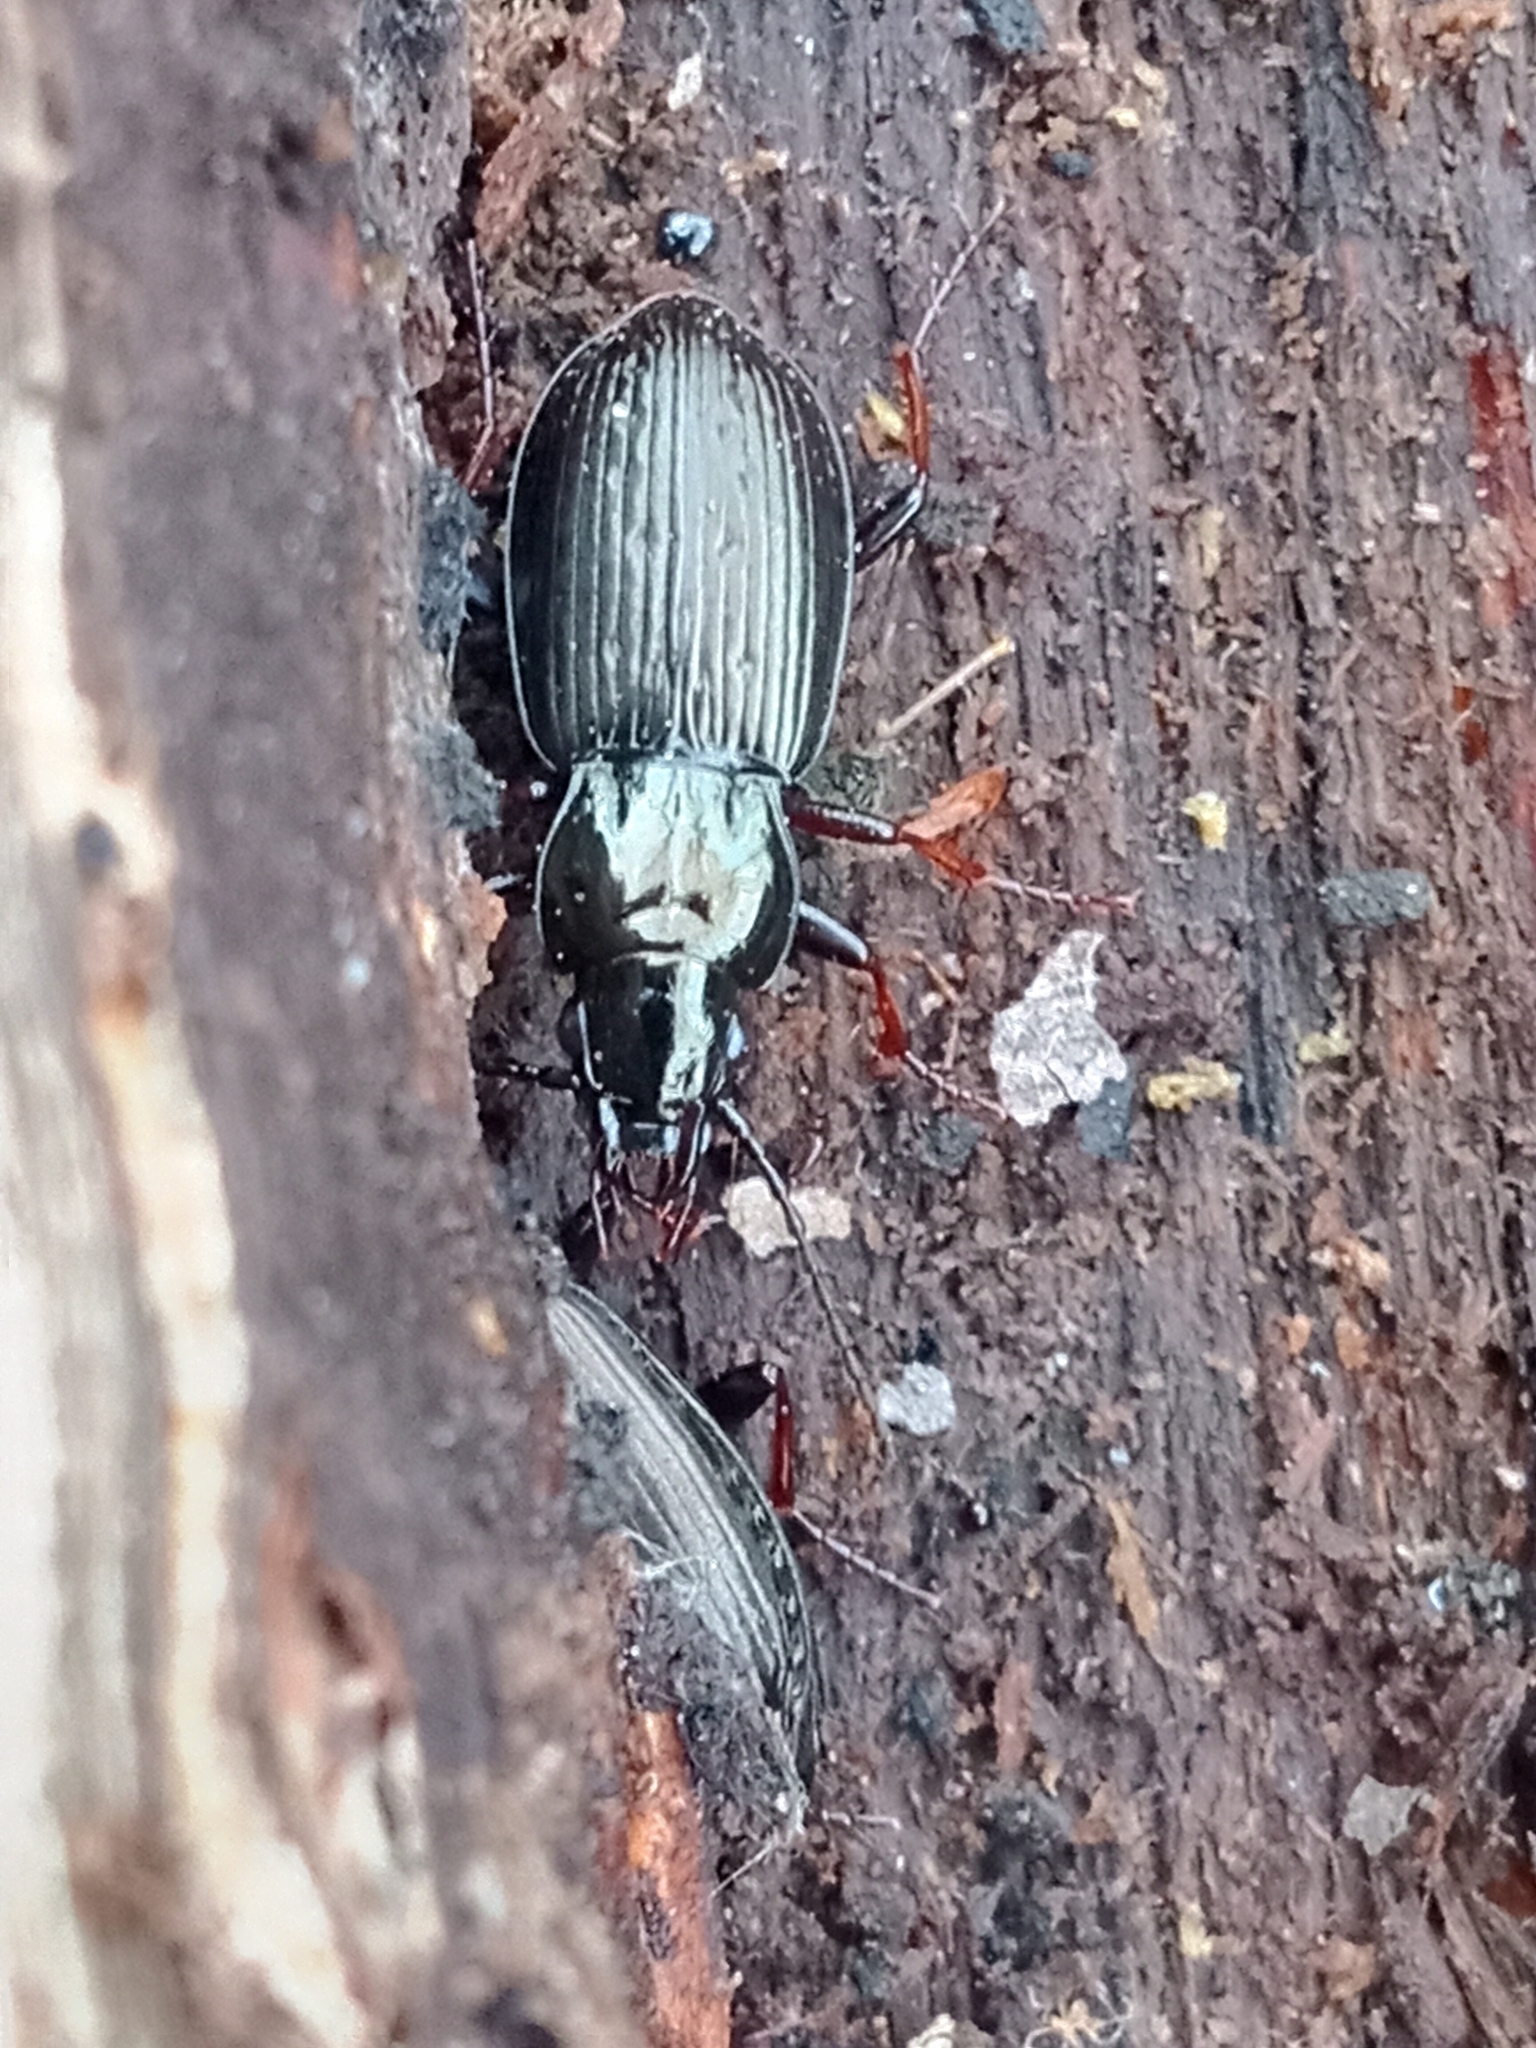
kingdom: Animalia
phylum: Arthropoda
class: Insecta
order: Coleoptera
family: Carabidae
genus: Pterostichus
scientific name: Pterostichus oblongopunctatus
